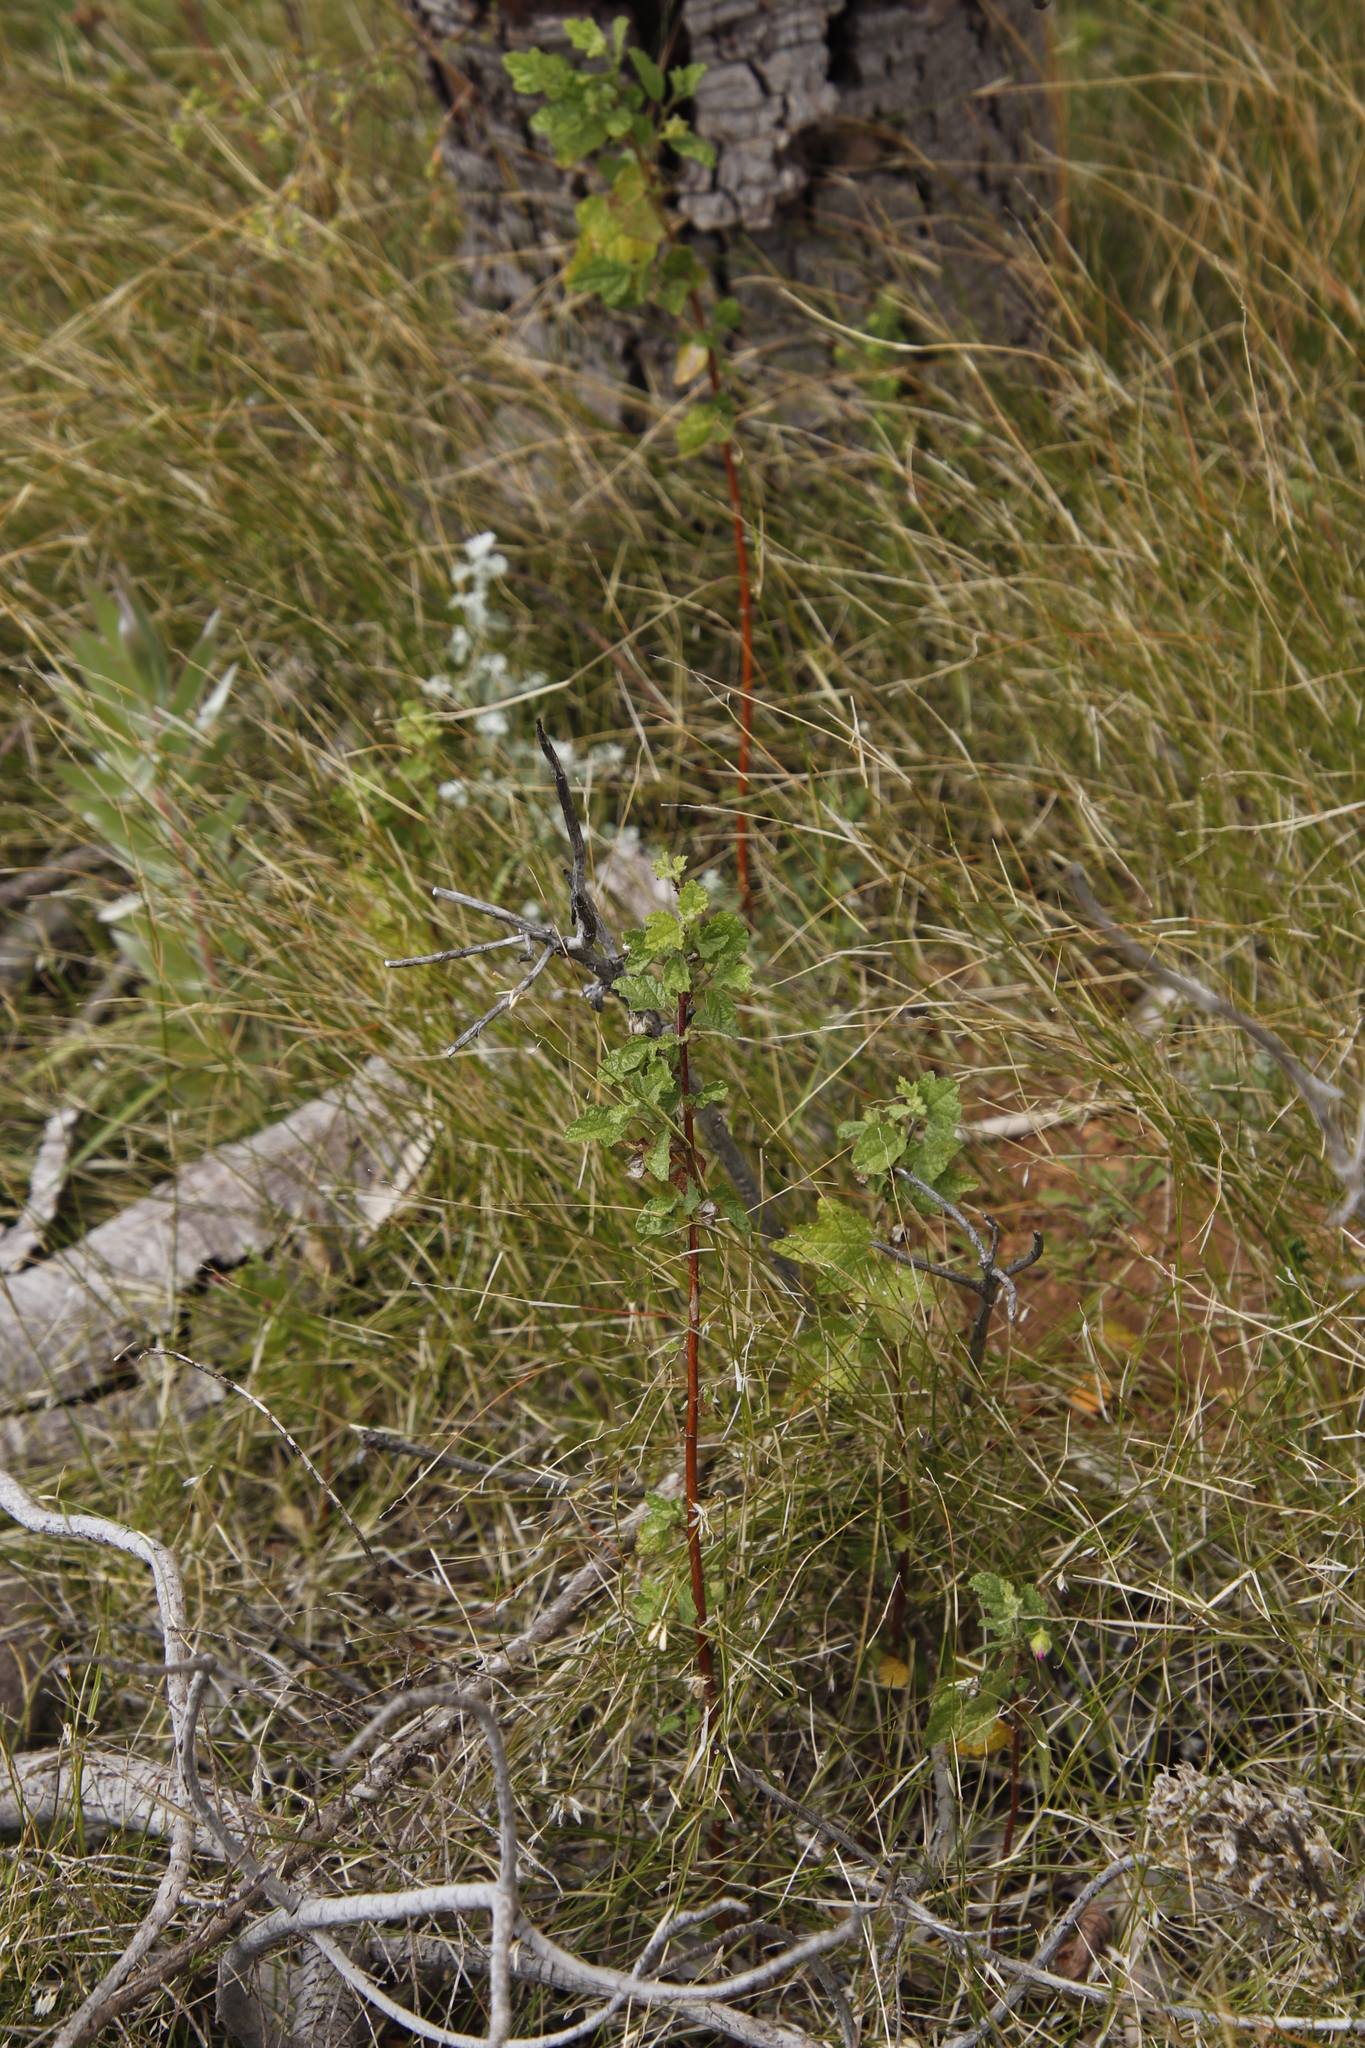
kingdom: Plantae
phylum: Tracheophyta
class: Magnoliopsida
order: Malvales
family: Malvaceae
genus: Anisodontea
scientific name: Anisodontea scabrosa
